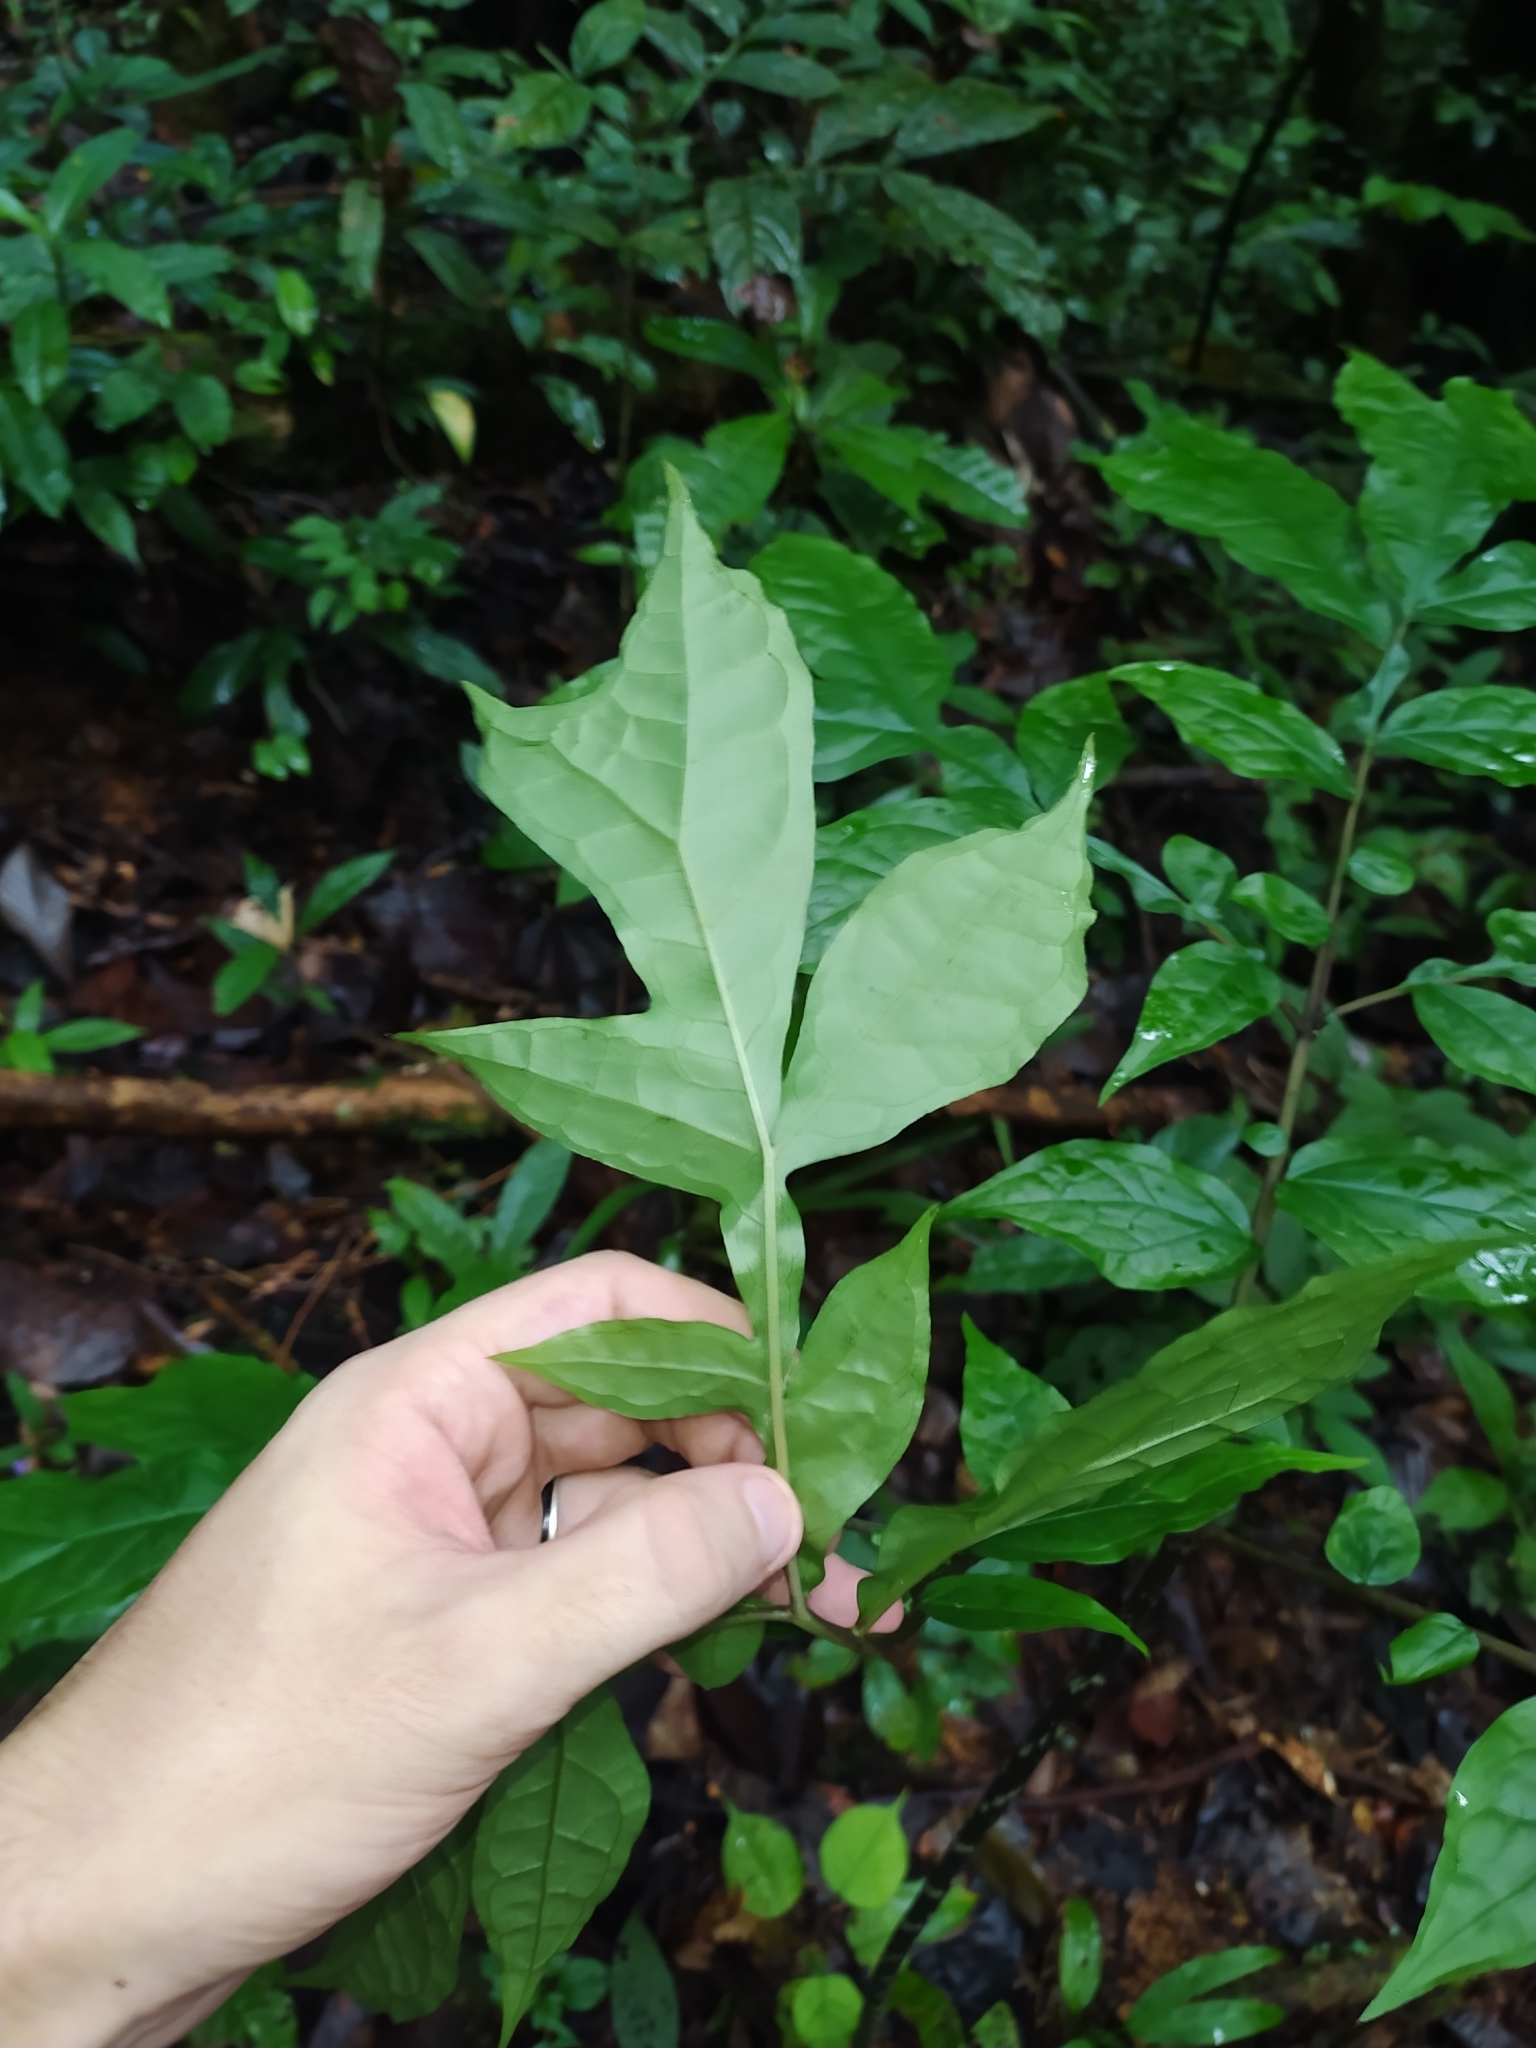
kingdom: Plantae
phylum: Tracheophyta
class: Liliopsida
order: Alismatales
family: Araceae
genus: Dracontium
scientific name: Dracontium
